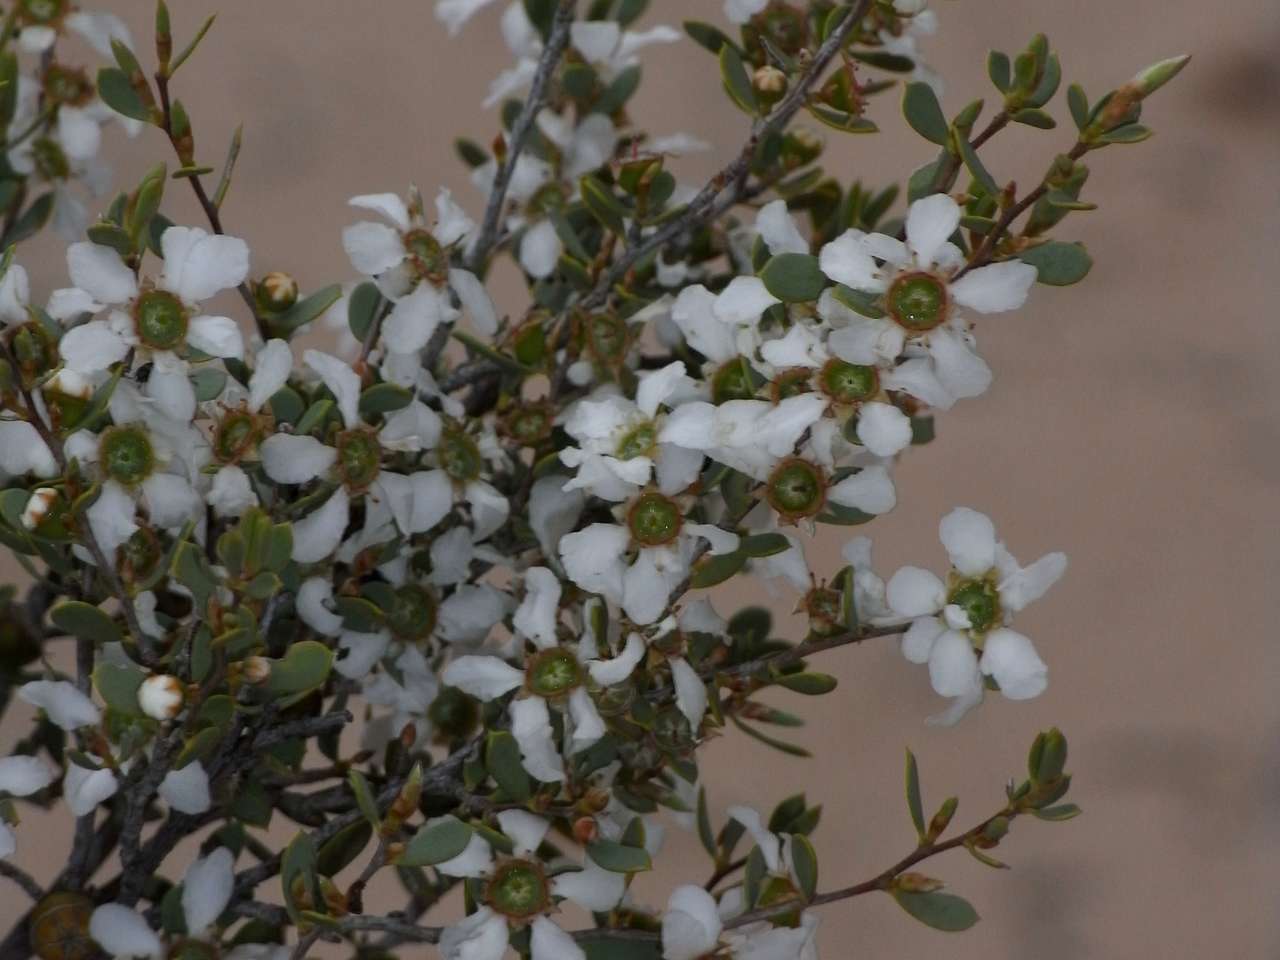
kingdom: Plantae
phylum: Tracheophyta
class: Magnoliopsida
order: Myrtales
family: Myrtaceae
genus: Leptospermum
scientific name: Leptospermum coriaceum
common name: Mallee teatree
